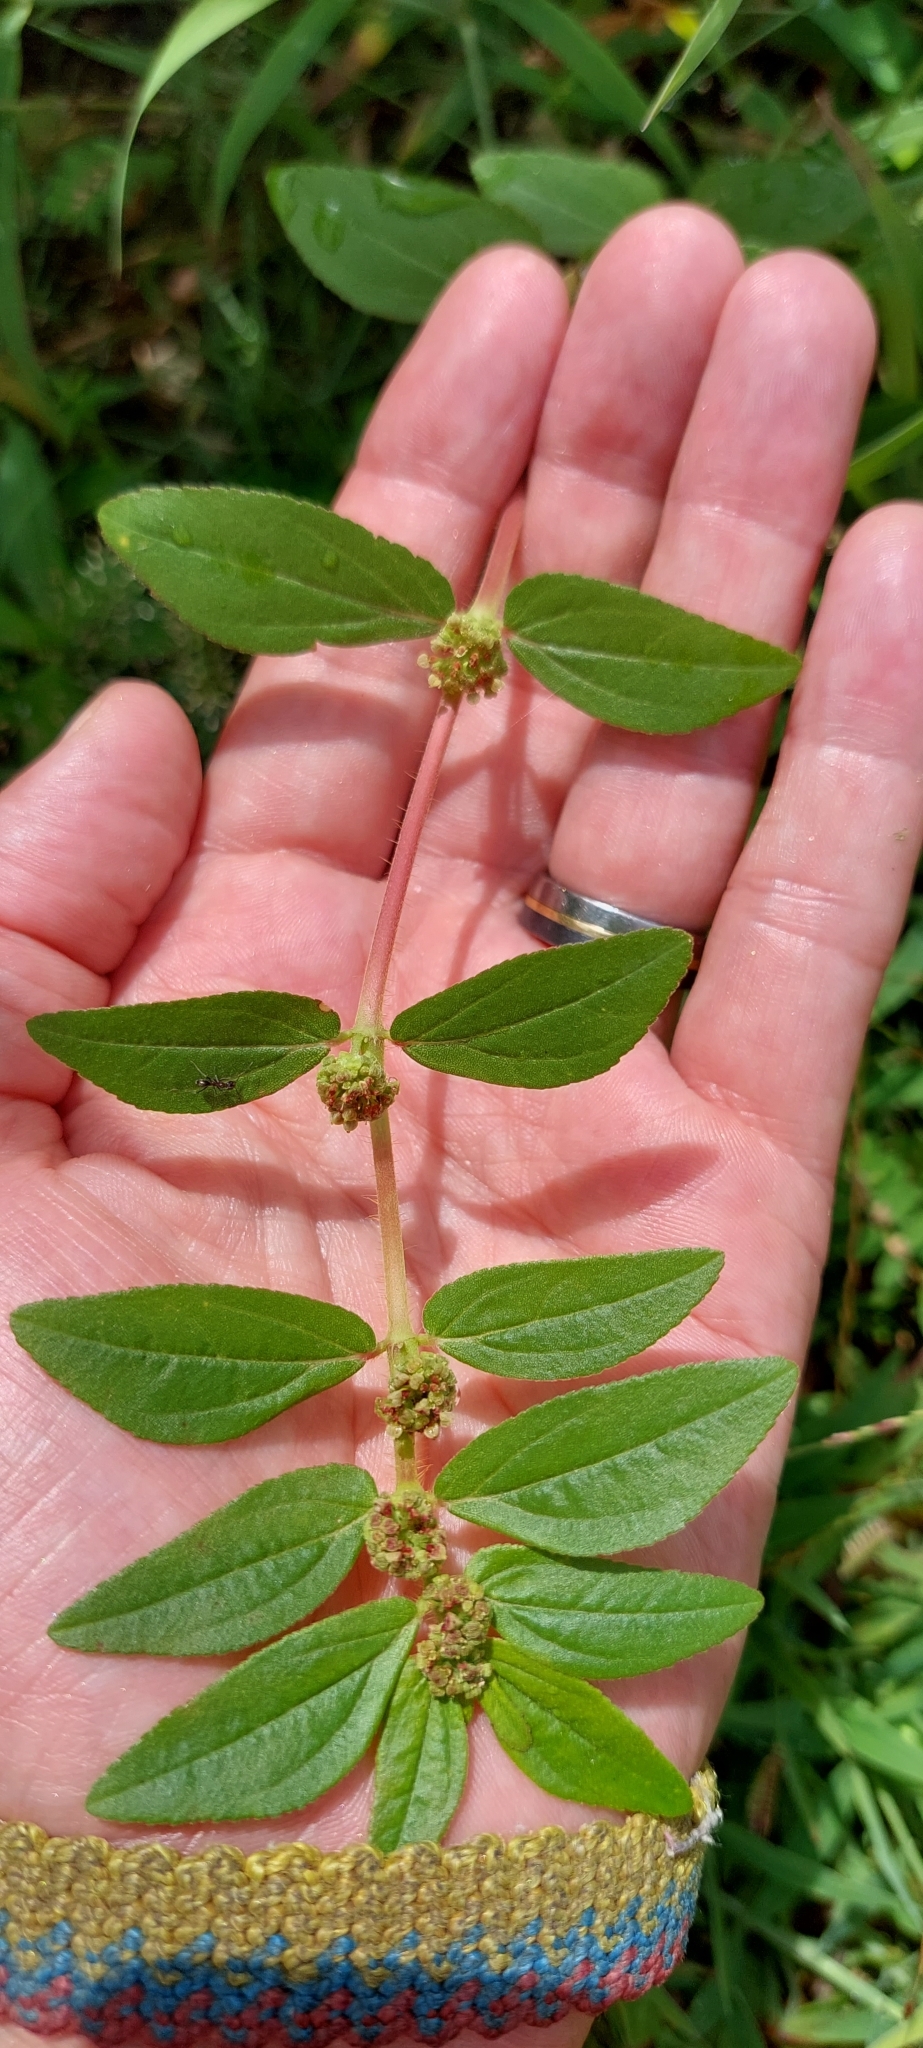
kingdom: Plantae
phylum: Tracheophyta
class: Magnoliopsida
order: Malpighiales
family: Euphorbiaceae
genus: Euphorbia
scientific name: Euphorbia hirta
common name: Pillpod sandmat
